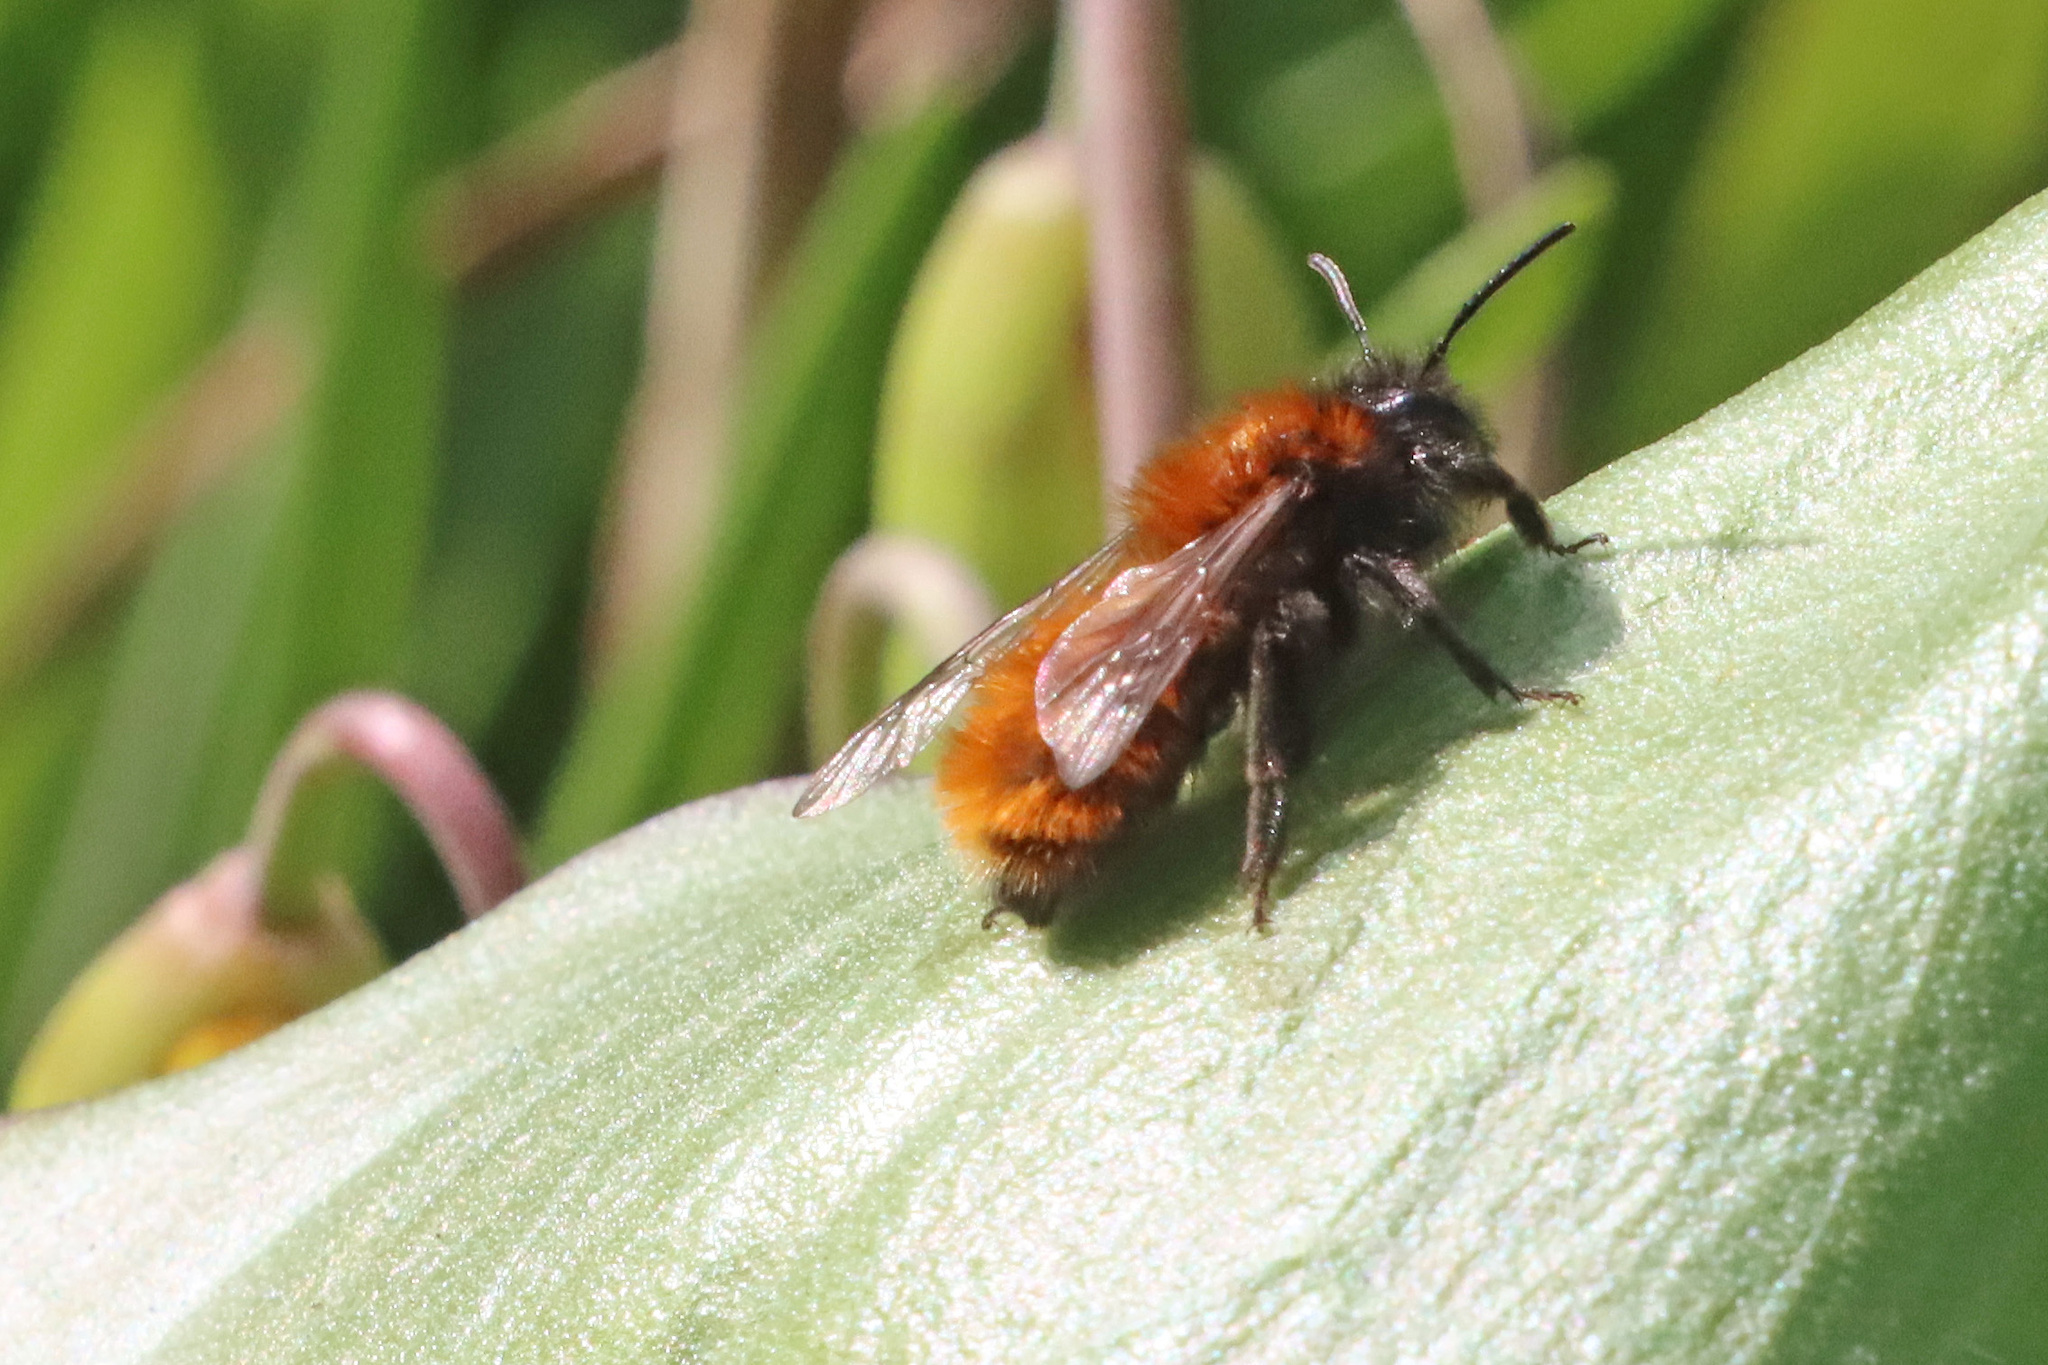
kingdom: Animalia
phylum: Arthropoda
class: Insecta
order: Hymenoptera
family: Andrenidae
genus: Andrena
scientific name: Andrena fulva
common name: Tawny mining bee
